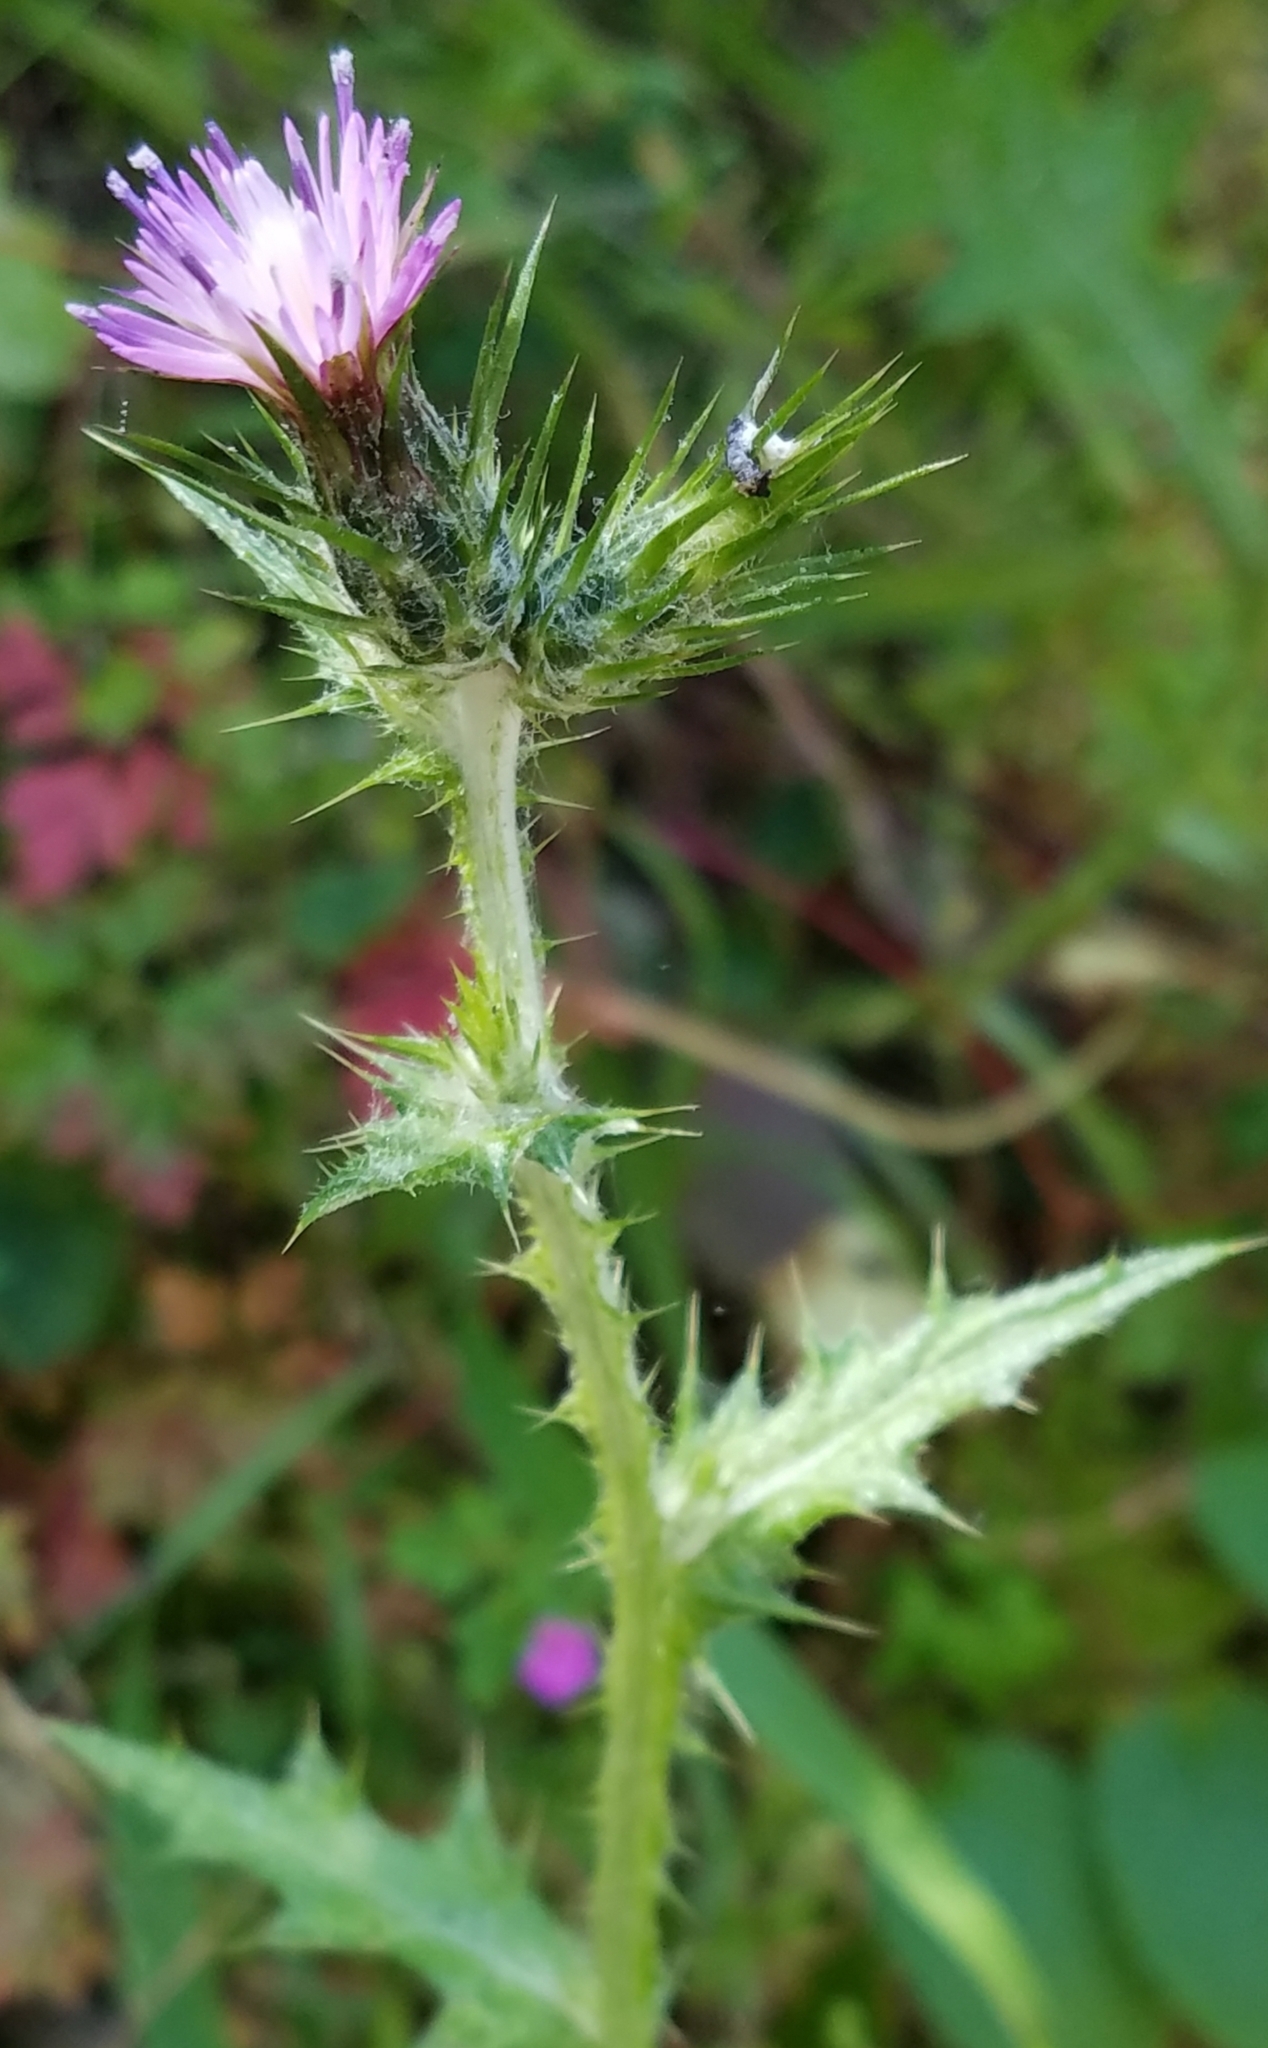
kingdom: Plantae
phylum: Tracheophyta
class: Magnoliopsida
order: Asterales
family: Asteraceae
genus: Carduus
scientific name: Carduus pycnocephalus
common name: Plymouth thistle
